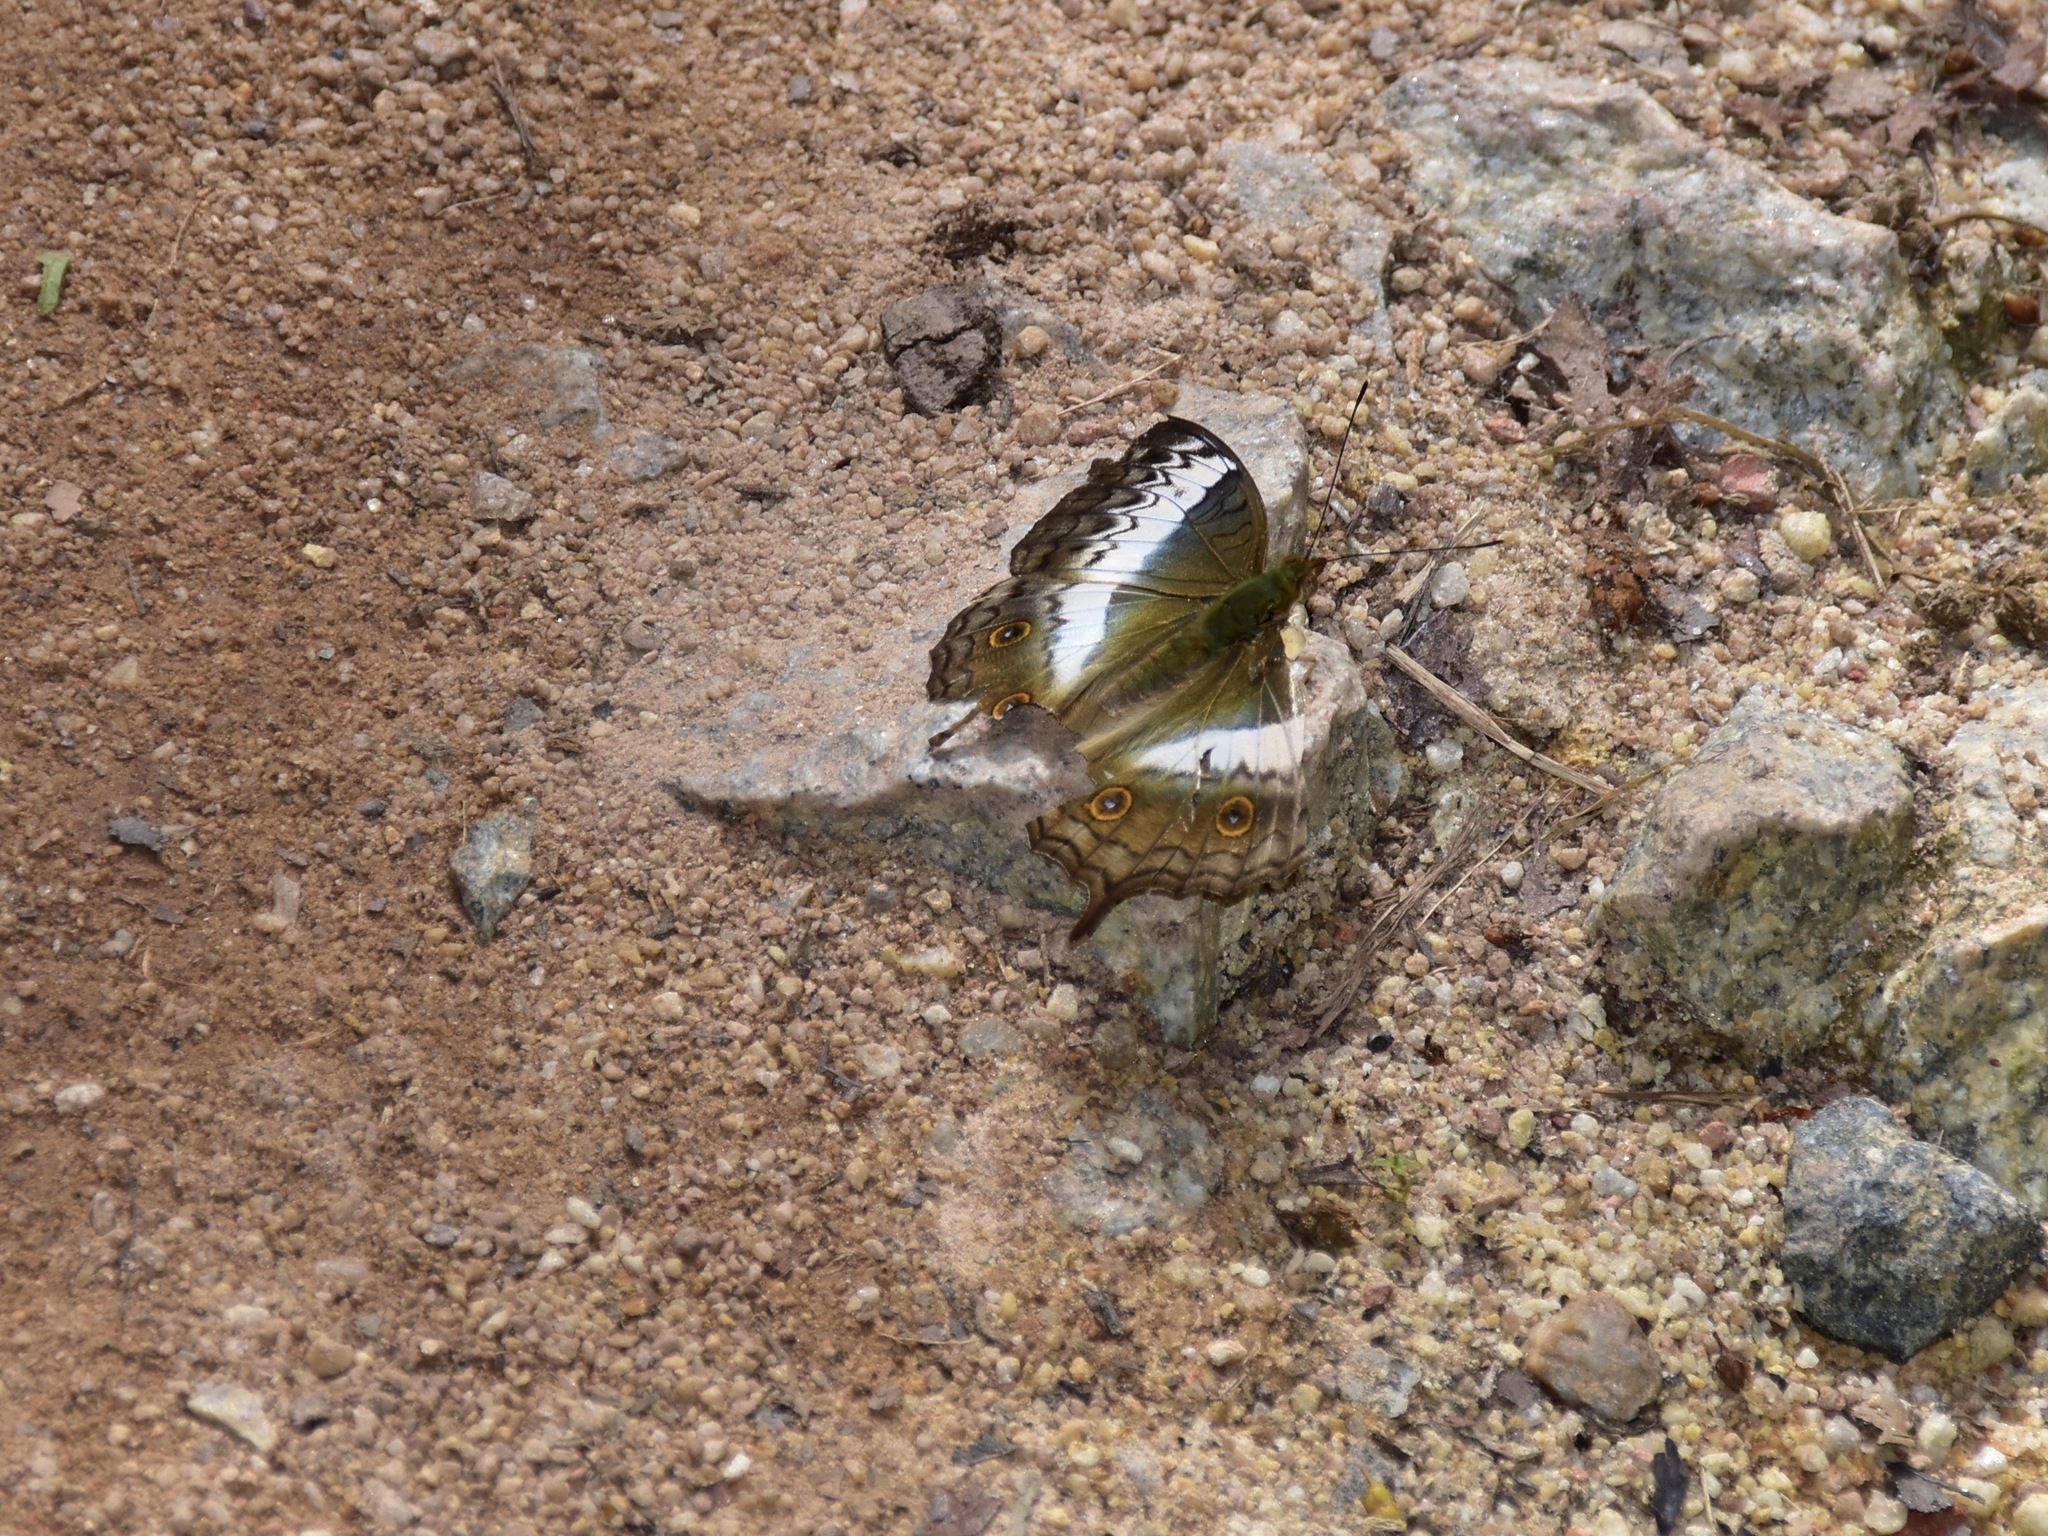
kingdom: Animalia
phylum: Arthropoda
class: Insecta
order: Lepidoptera
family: Nymphalidae
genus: Vindula
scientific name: Vindula deione
